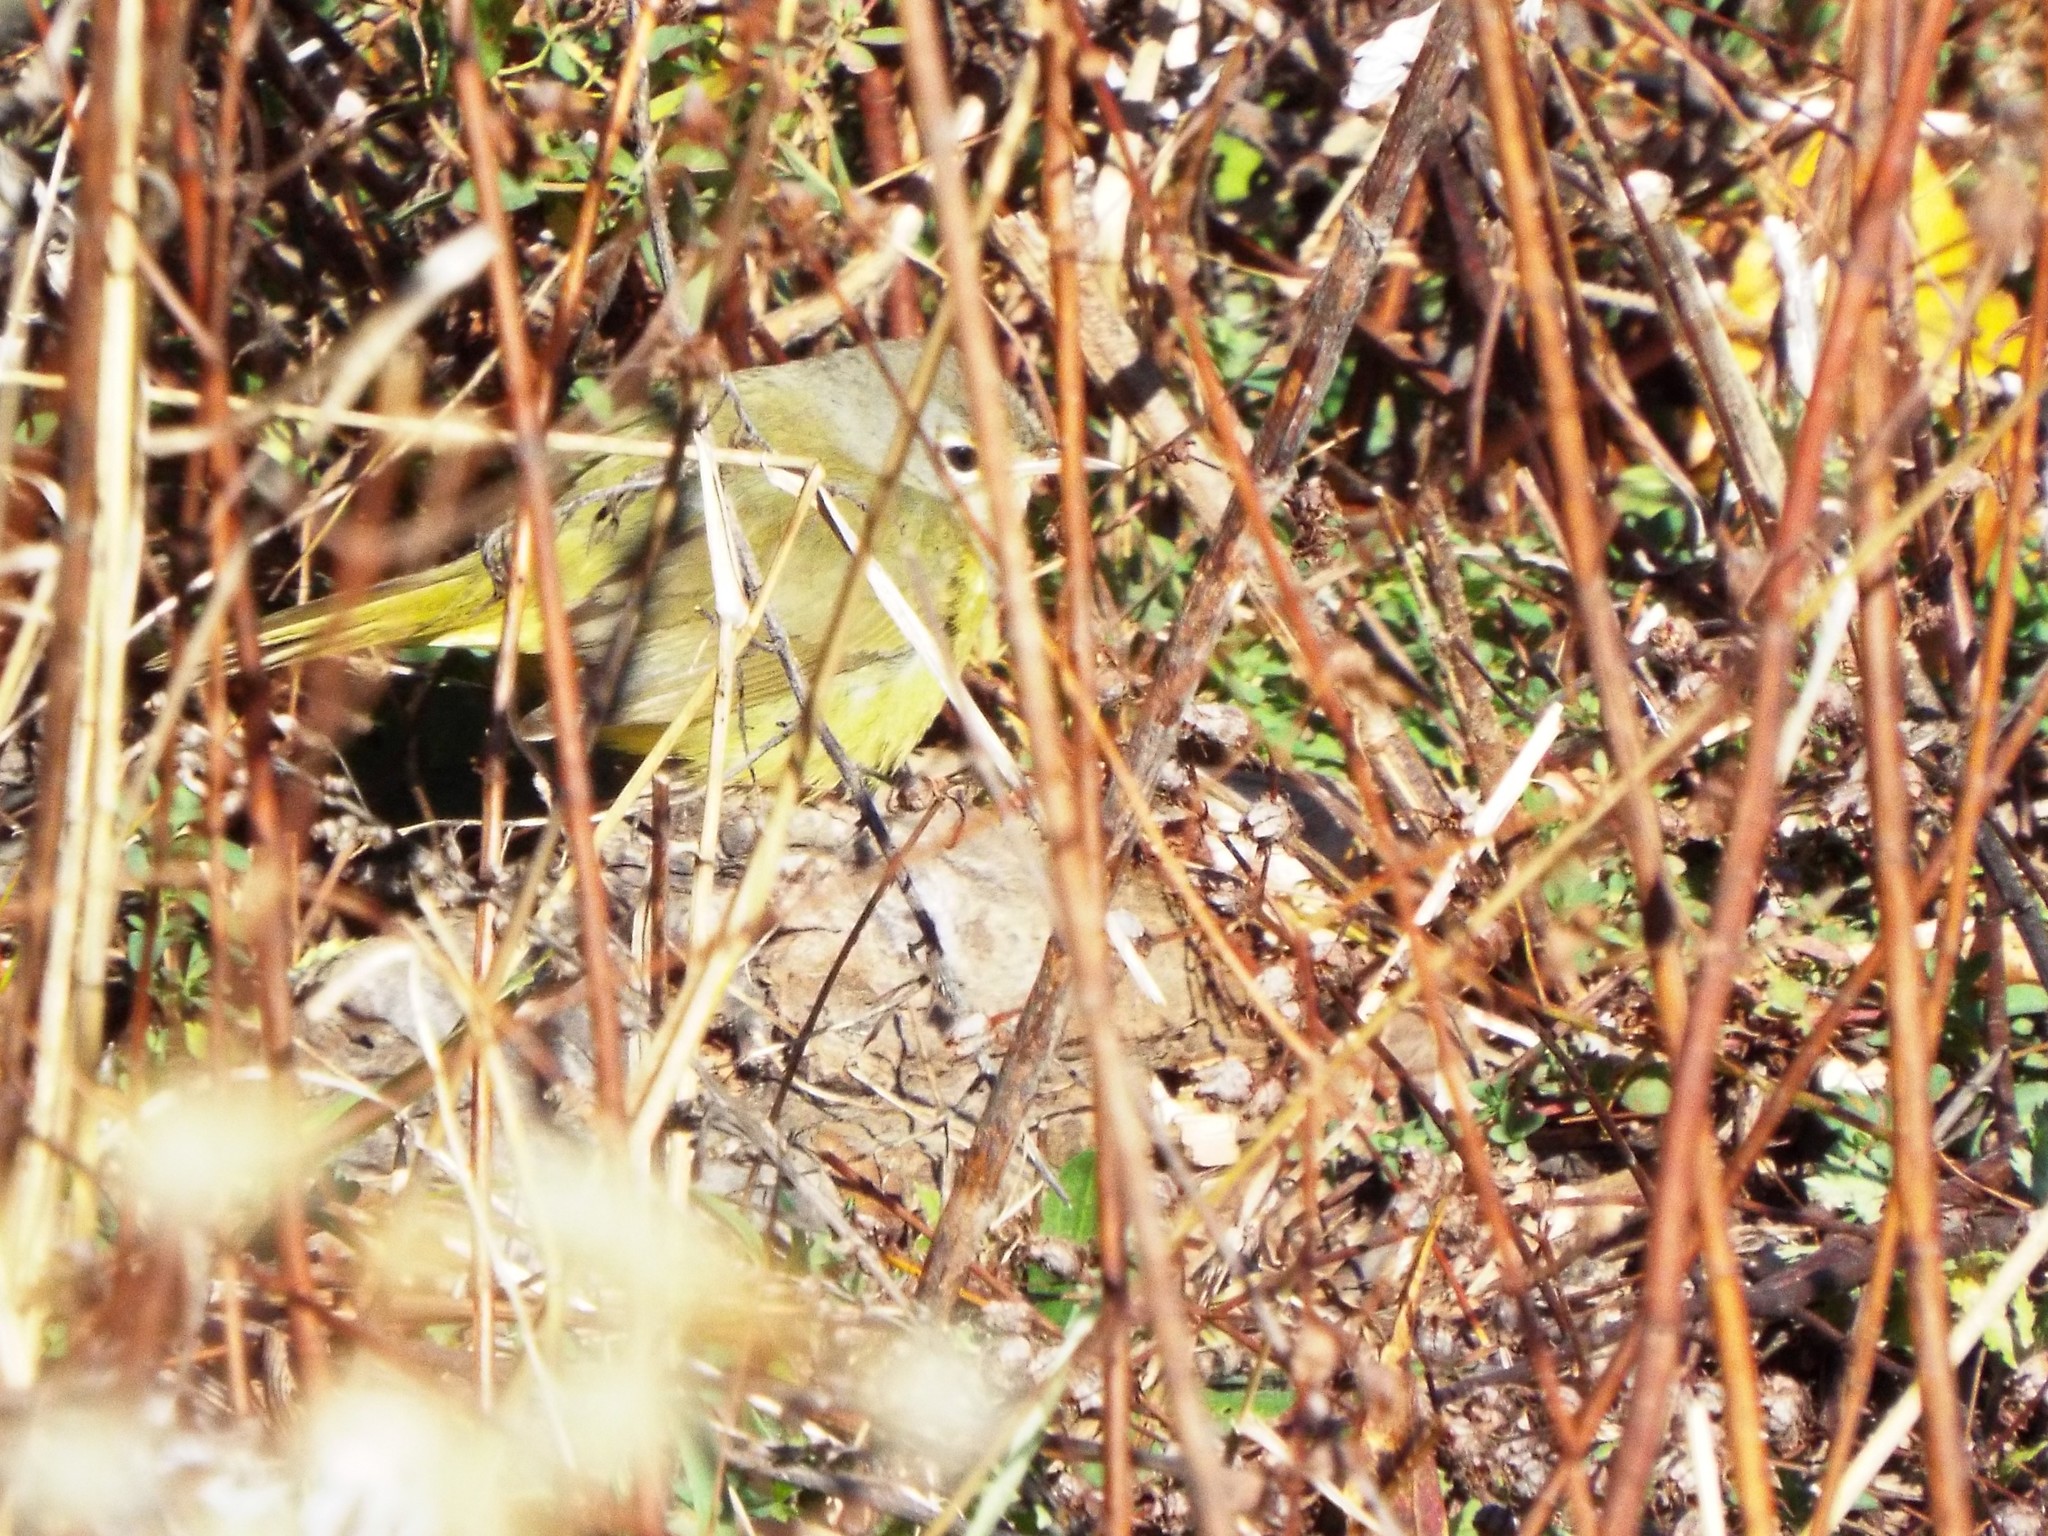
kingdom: Animalia
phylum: Chordata
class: Aves
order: Passeriformes
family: Parulidae
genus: Geothlypis
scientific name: Geothlypis tolmiei
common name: Macgillivray's warbler
